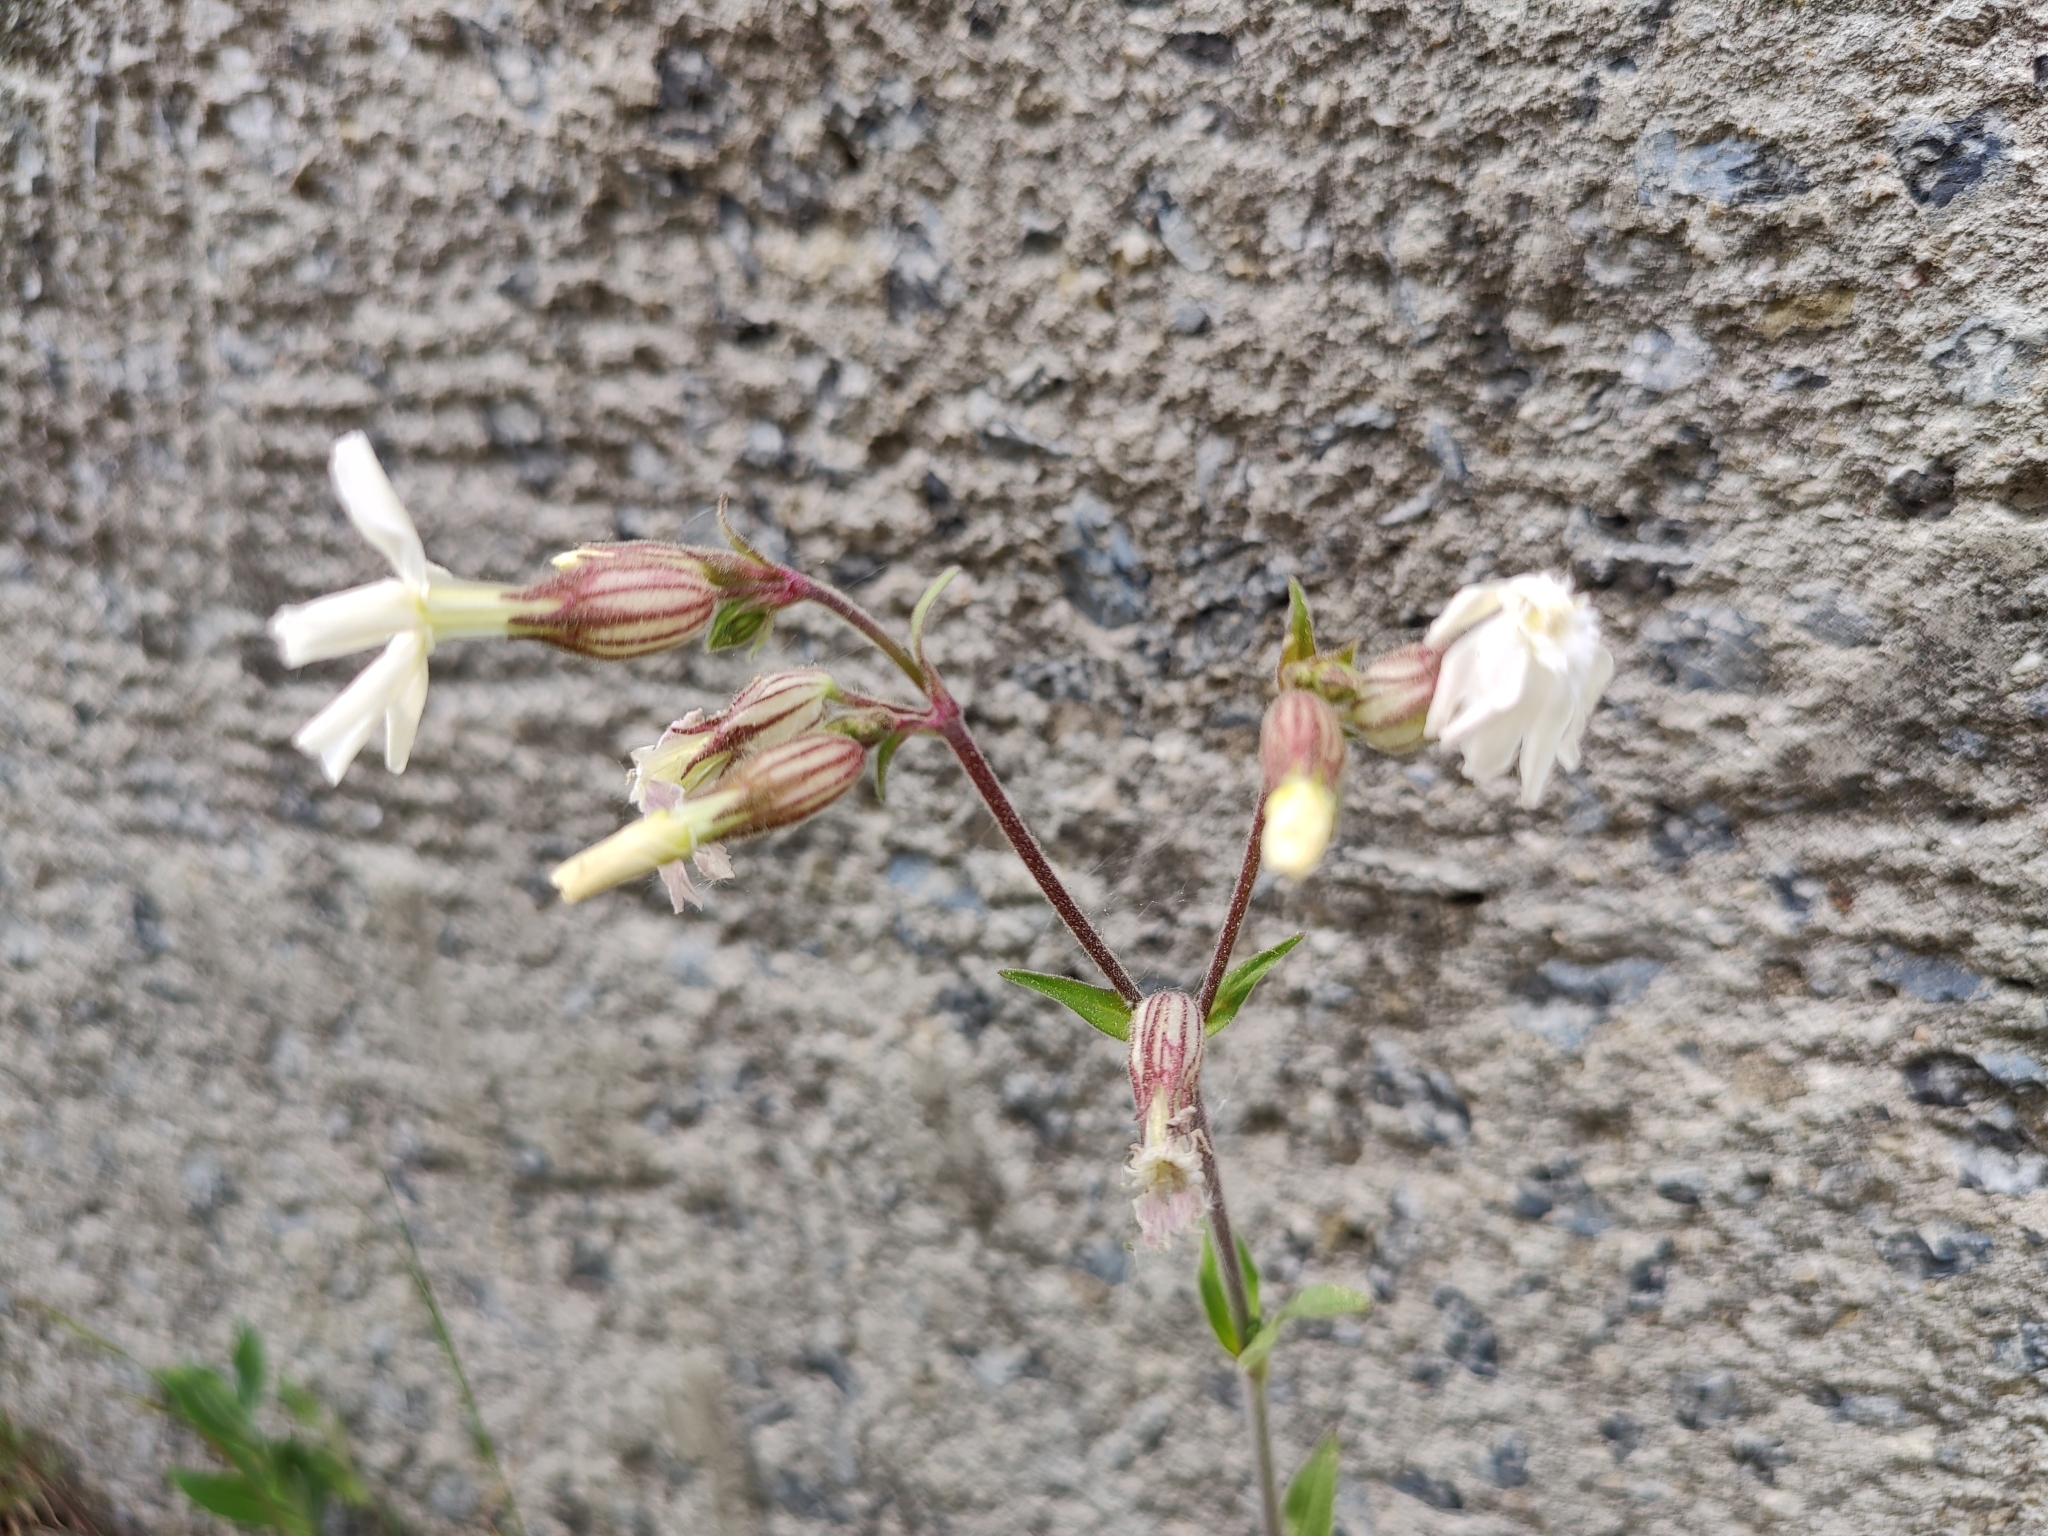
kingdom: Plantae
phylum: Tracheophyta
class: Magnoliopsida
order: Caryophyllales
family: Caryophyllaceae
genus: Silene
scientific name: Silene latifolia
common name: White campion
